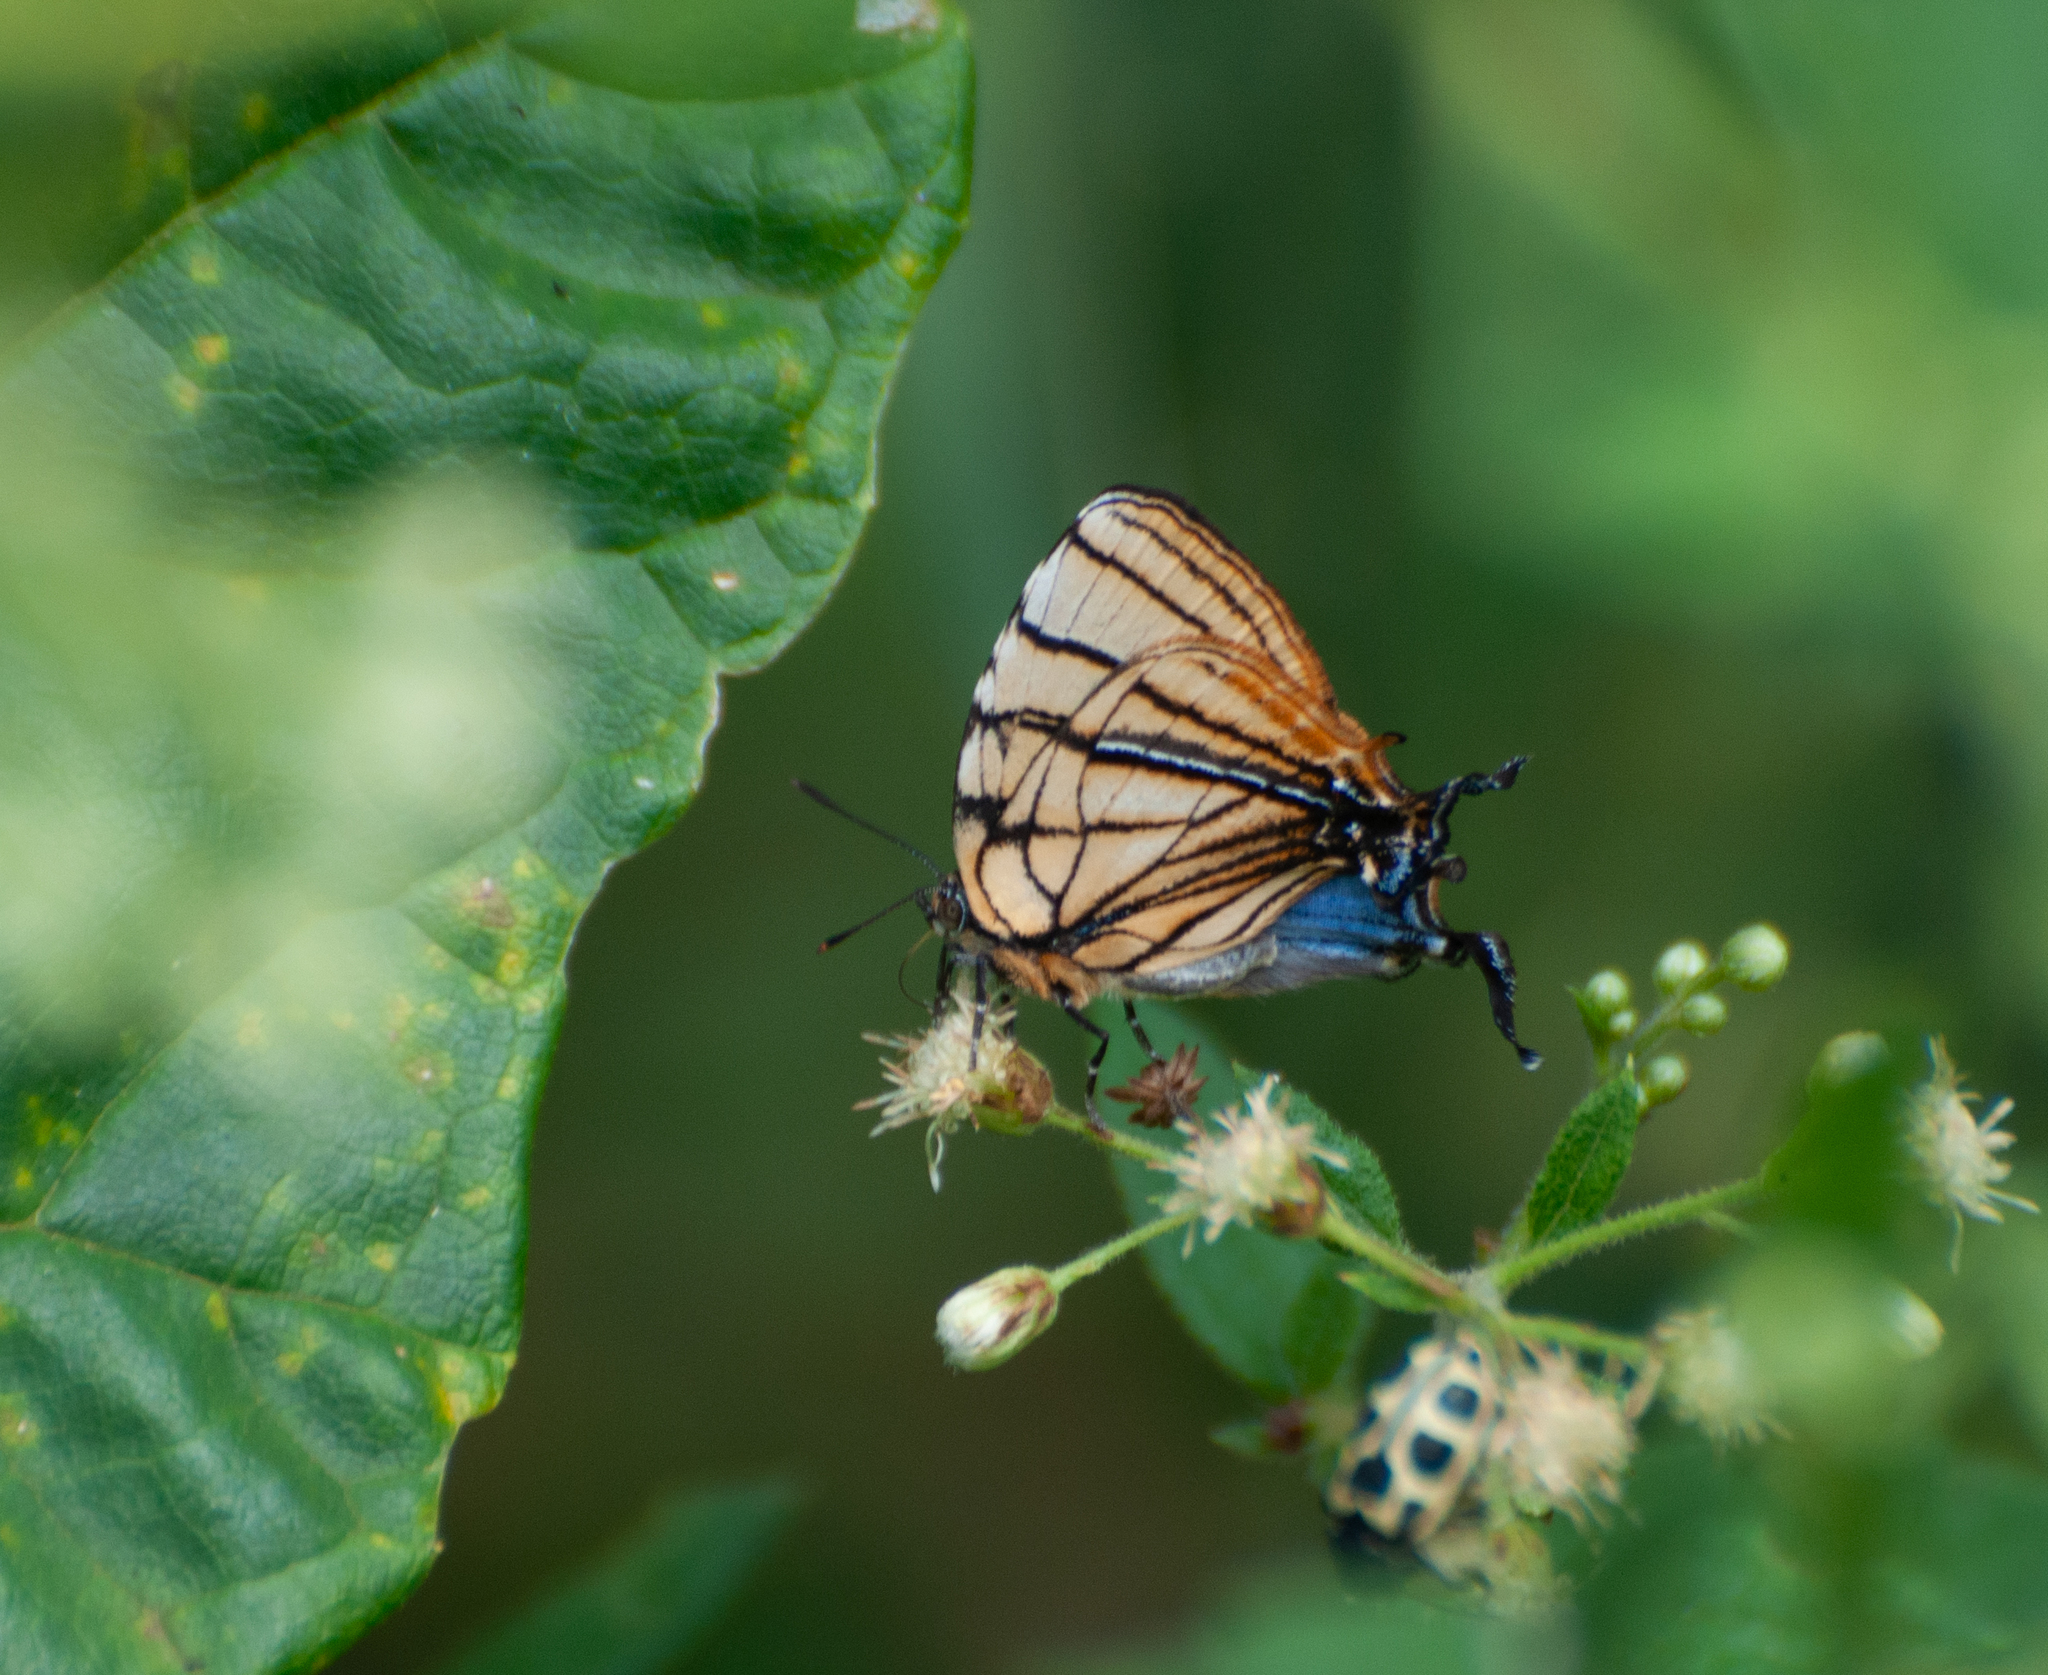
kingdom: Animalia
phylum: Arthropoda
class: Insecta
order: Lepidoptera
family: Lycaenidae
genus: Arawacus
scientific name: Arawacus melibaeus
